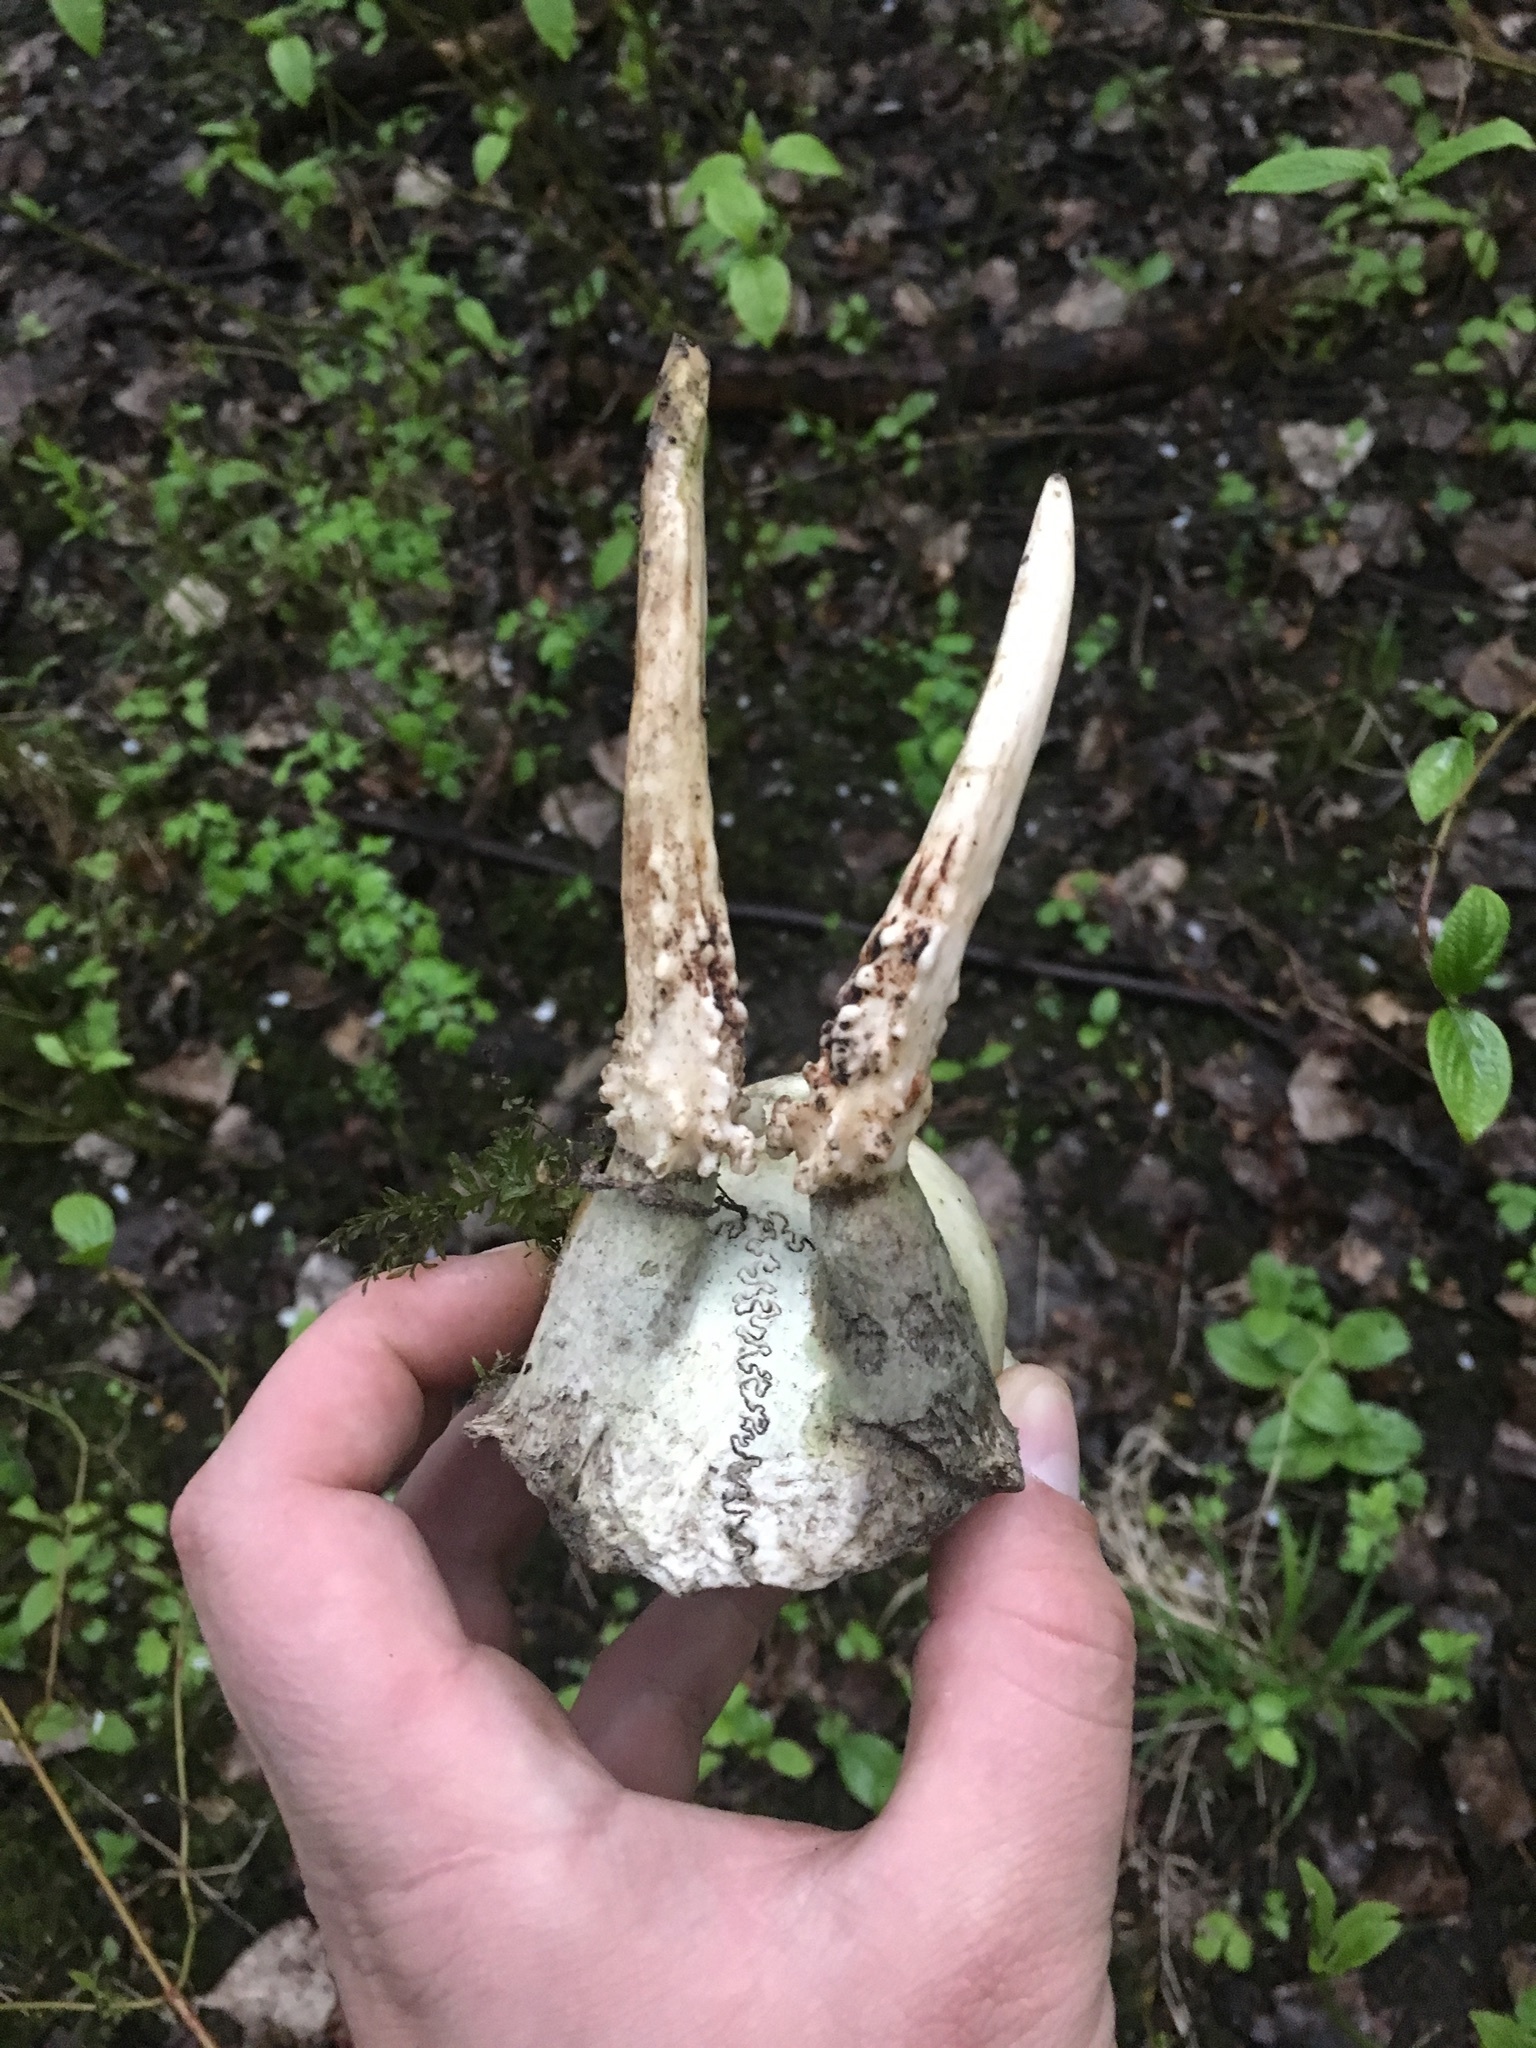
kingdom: Animalia
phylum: Chordata
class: Mammalia
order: Artiodactyla
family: Cervidae
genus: Capreolus
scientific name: Capreolus capreolus
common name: Western roe deer
